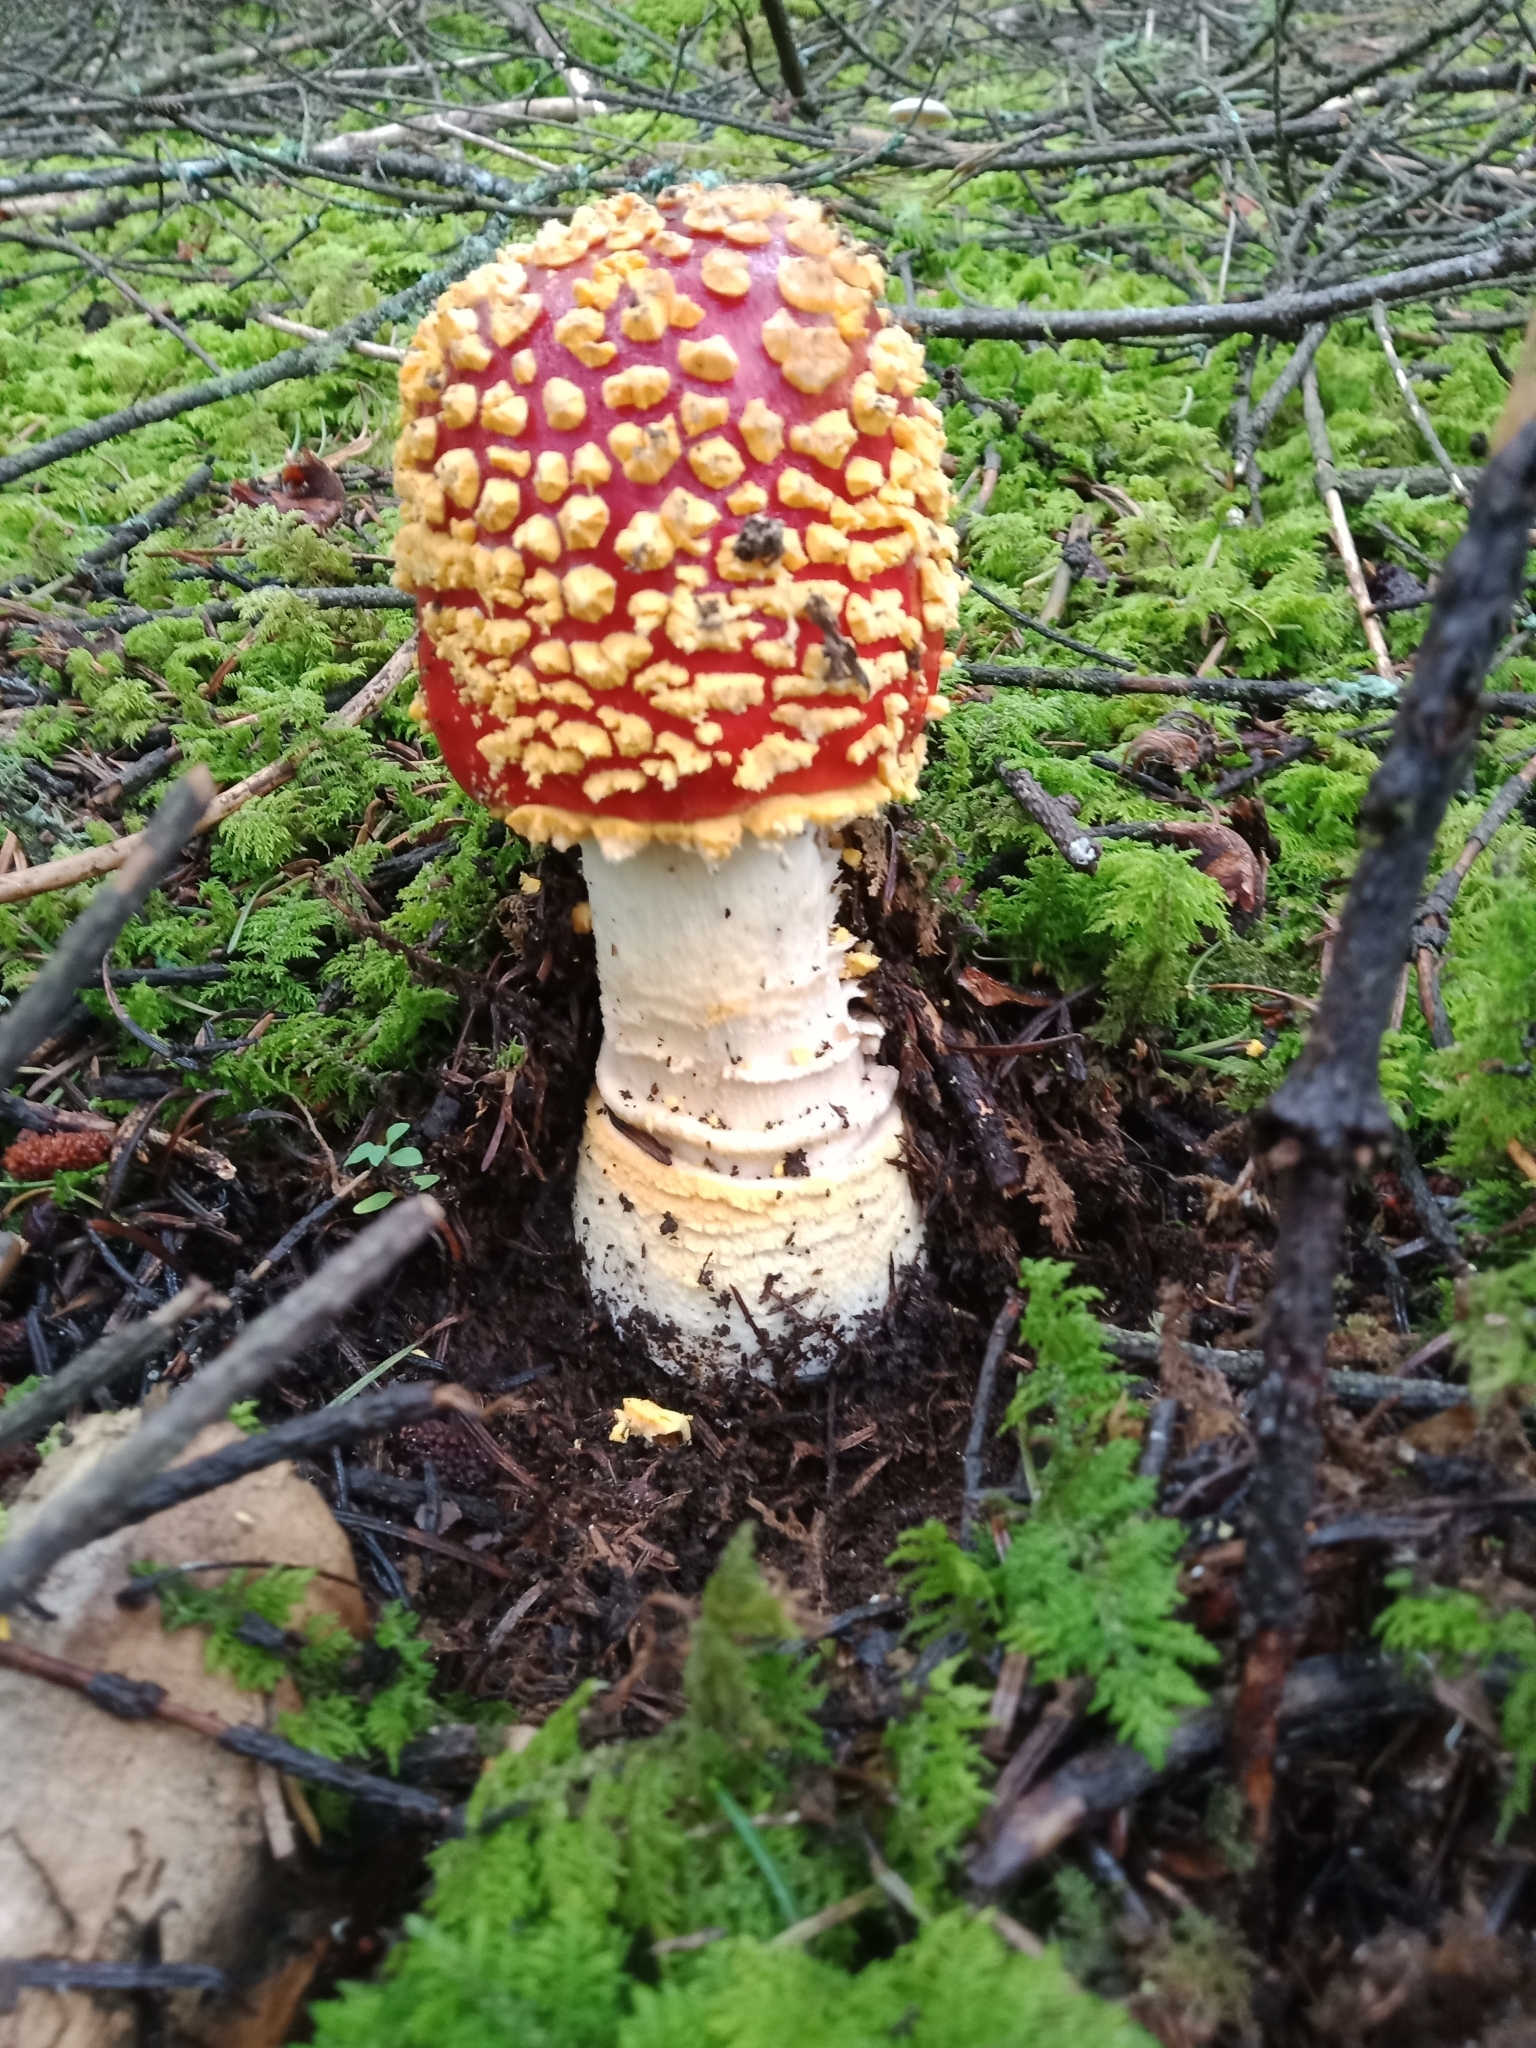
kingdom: Fungi
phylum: Basidiomycota
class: Agaricomycetes
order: Agaricales
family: Amanitaceae
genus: Amanita
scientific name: Amanita muscaria
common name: Fly agaric
